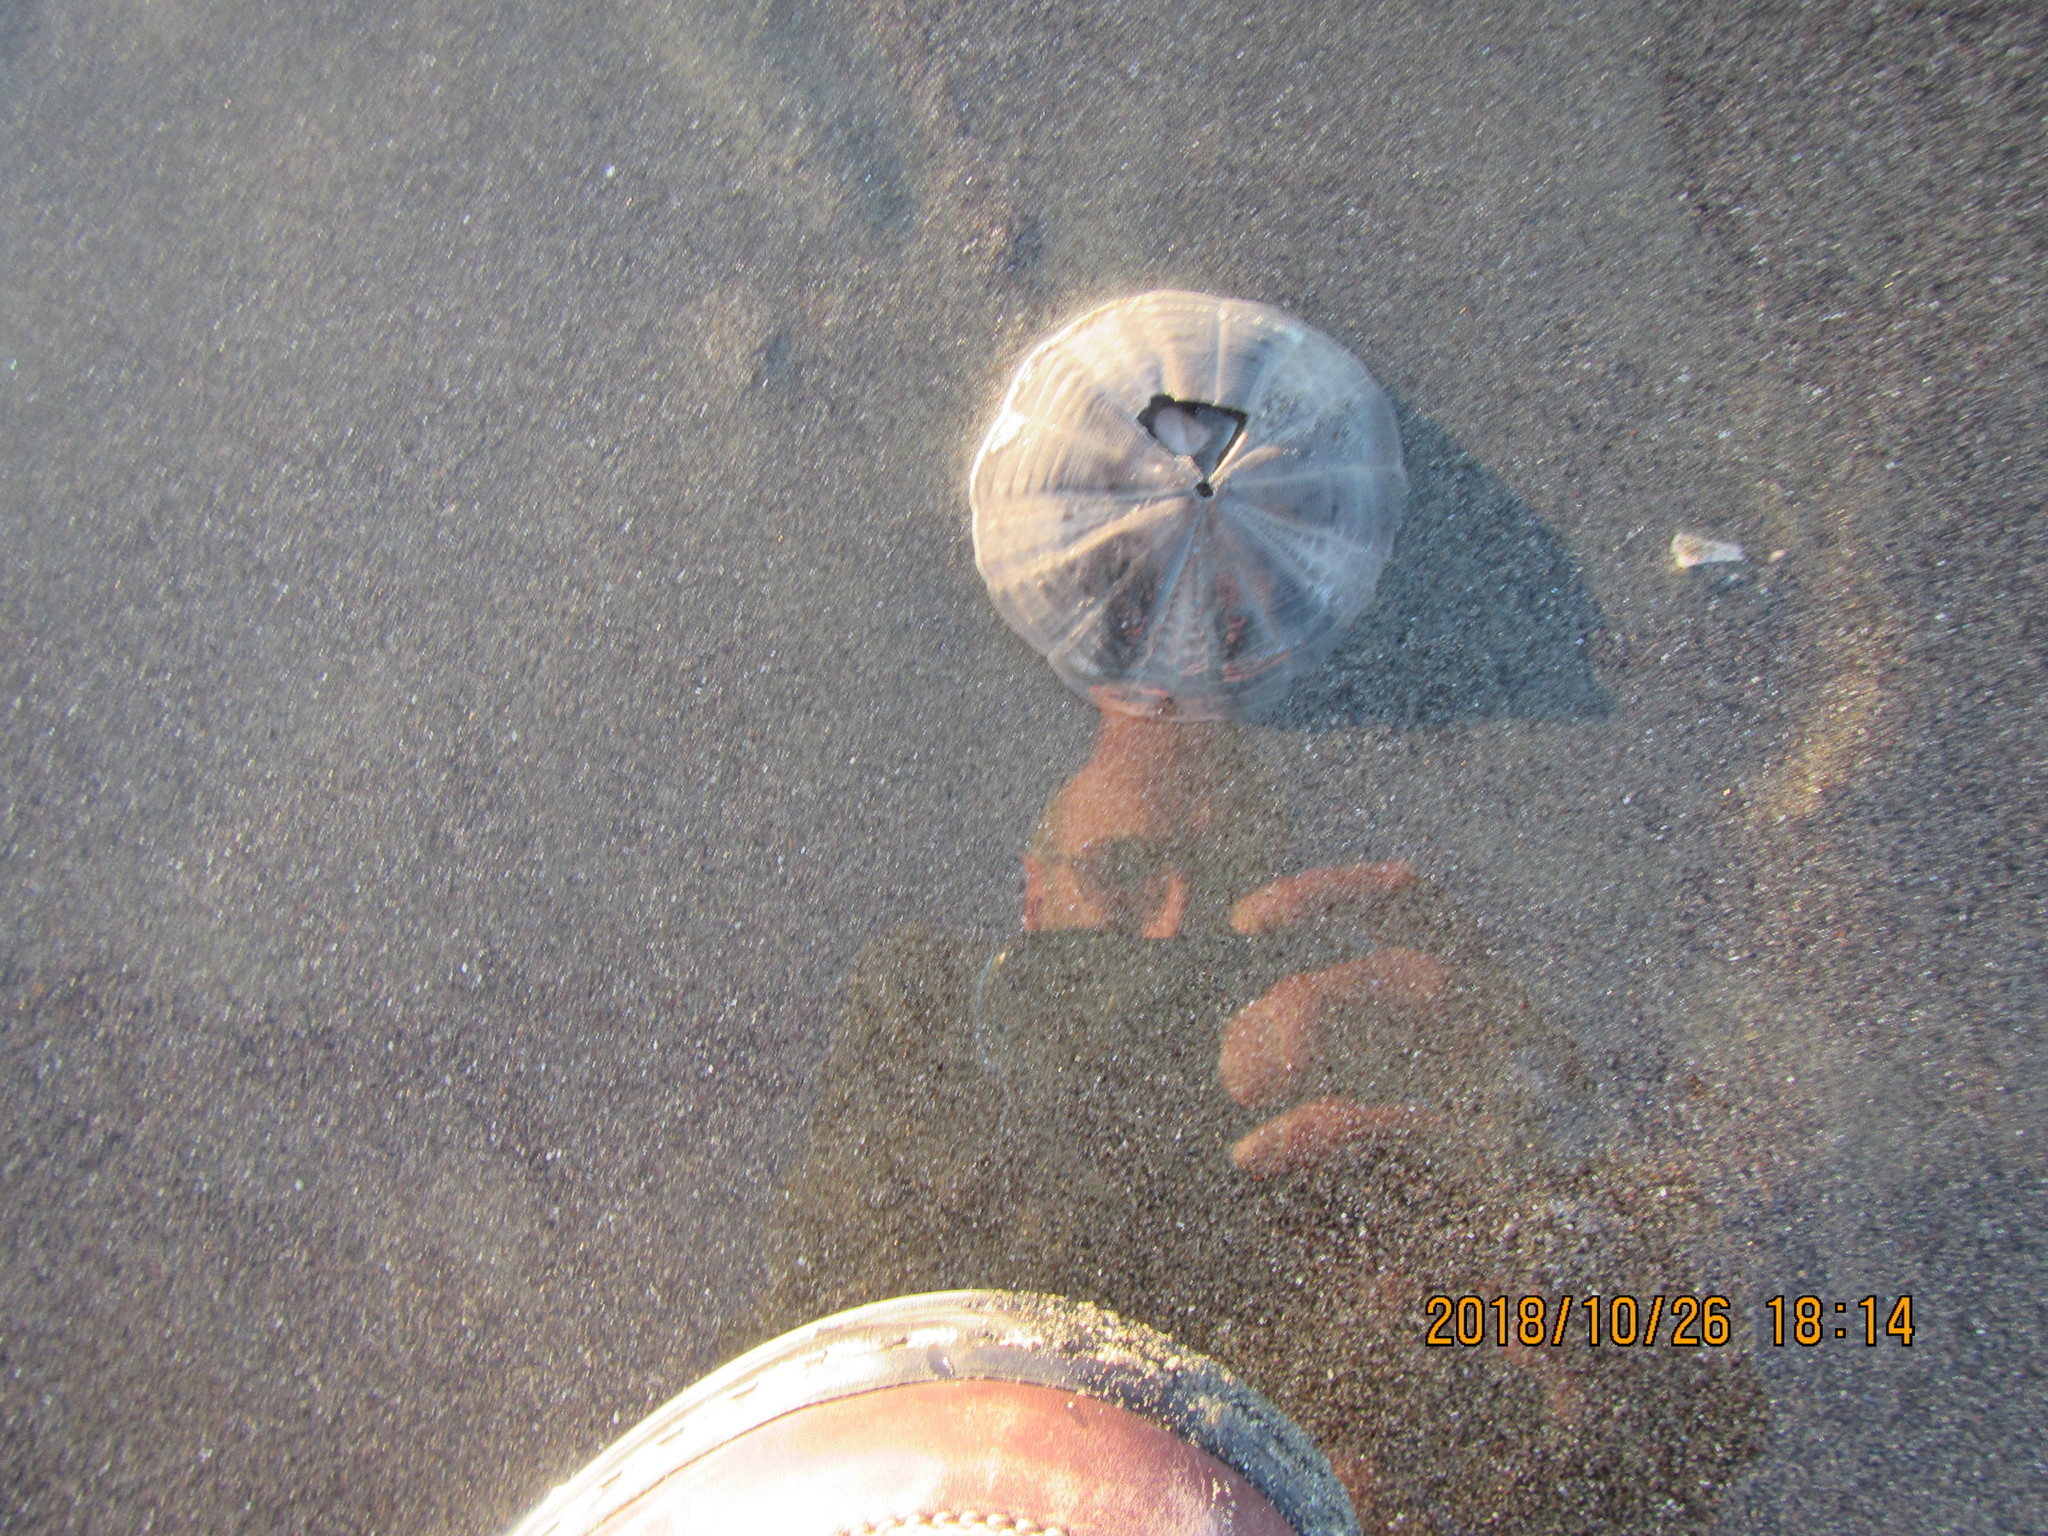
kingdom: Animalia
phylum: Echinodermata
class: Echinoidea
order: Clypeasteroida
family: Clypeasteridae
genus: Fellaster
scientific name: Fellaster zelandiae
